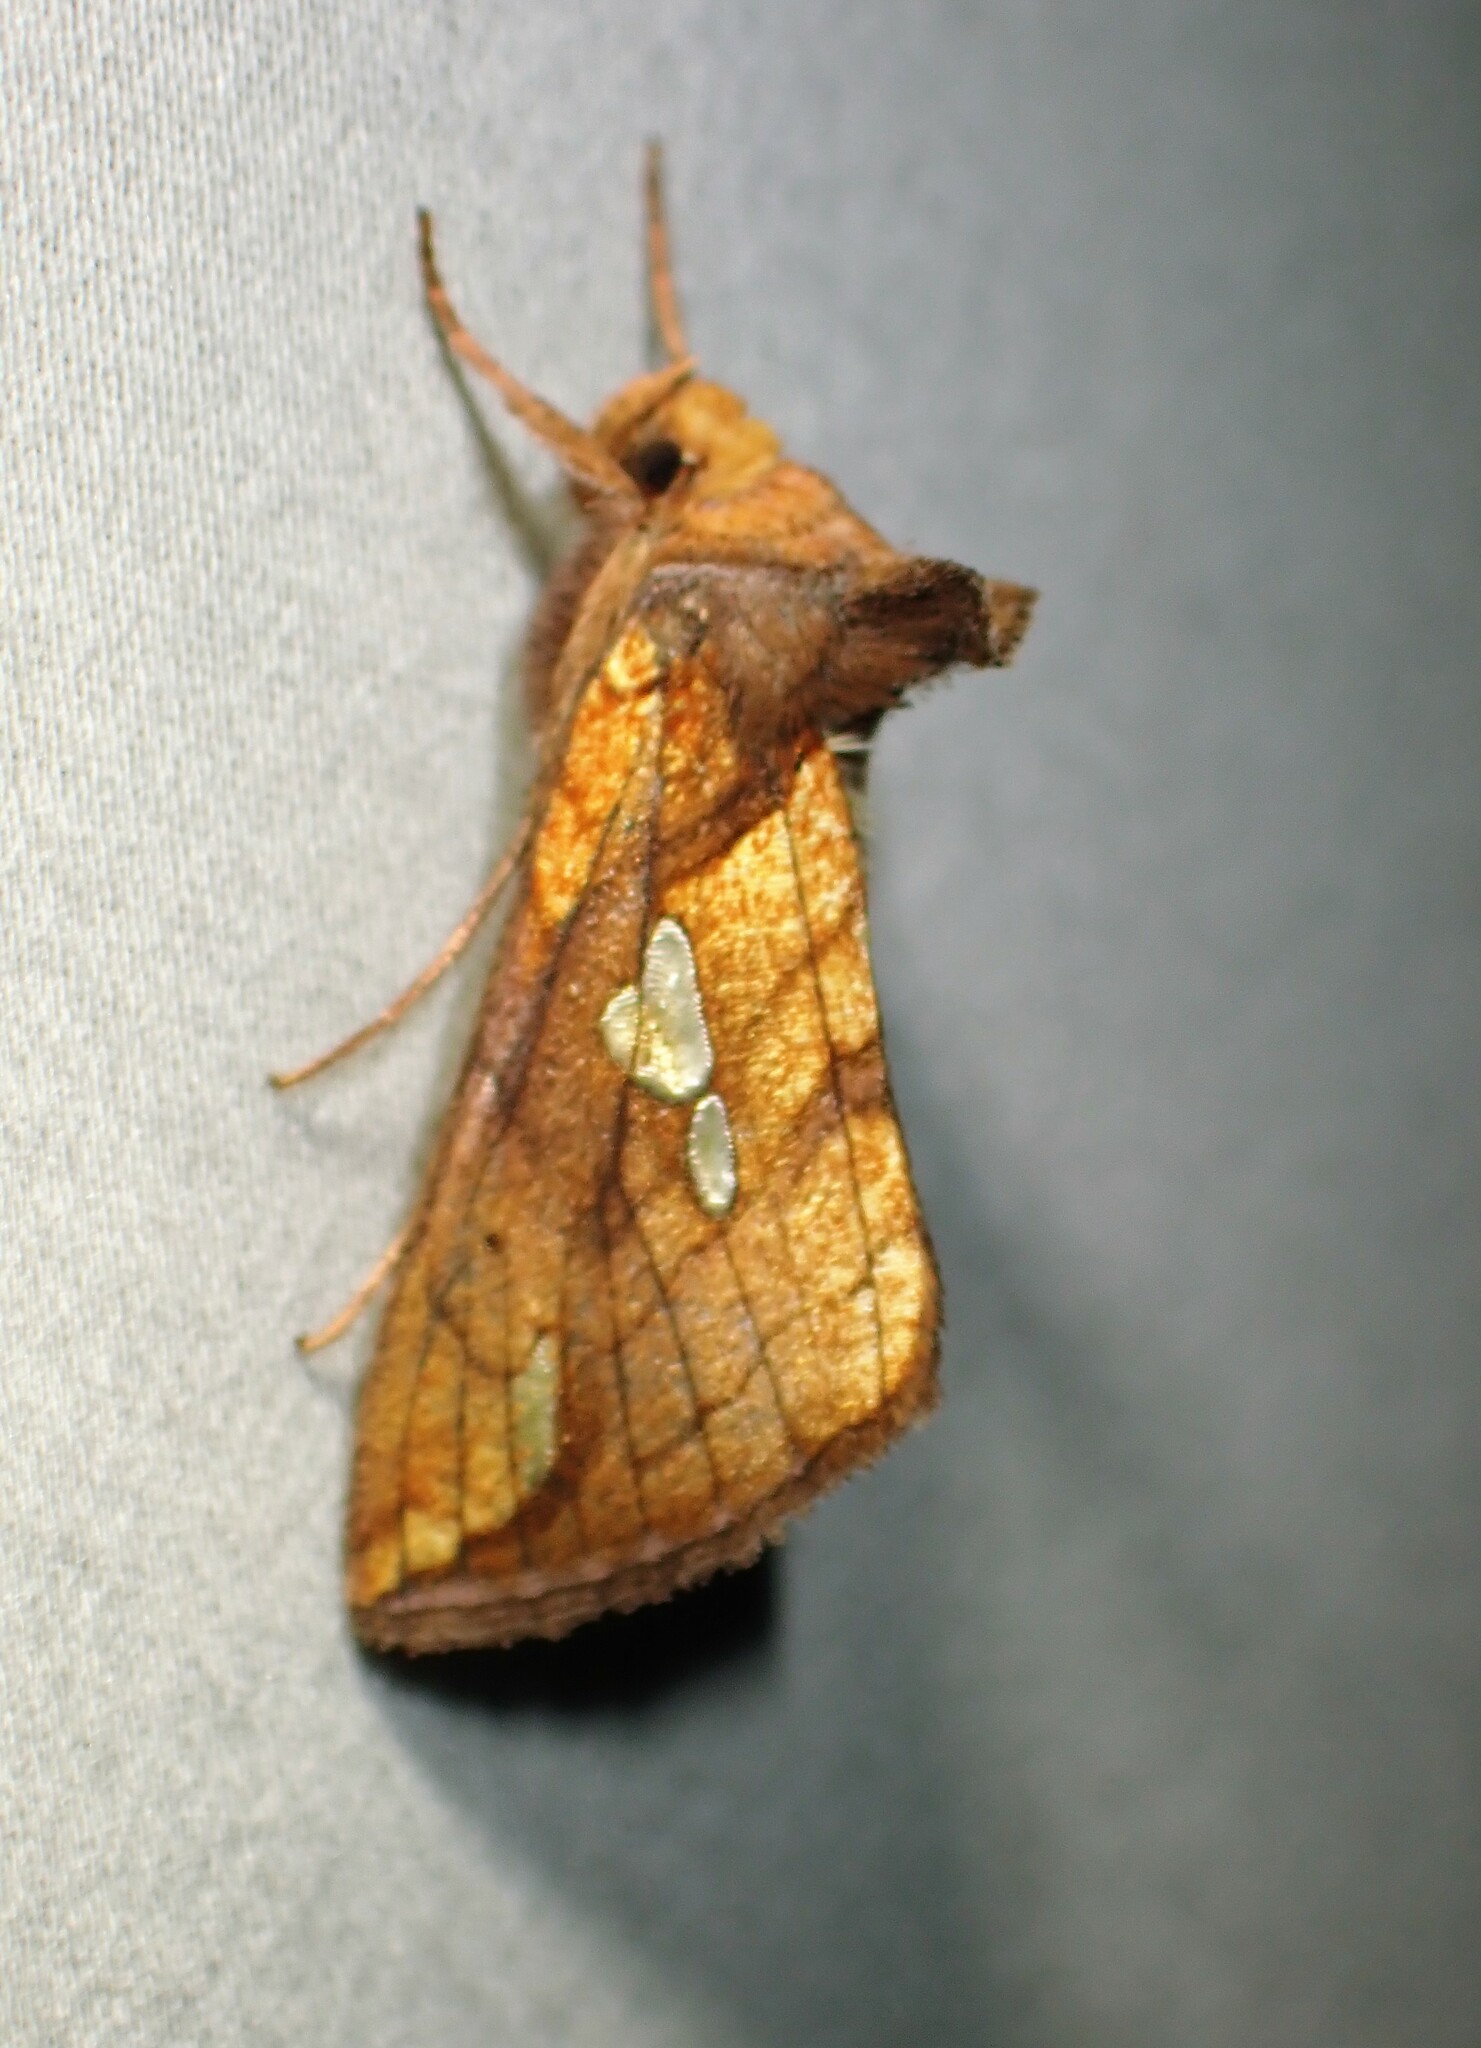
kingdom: Animalia
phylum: Arthropoda
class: Insecta
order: Lepidoptera
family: Noctuidae
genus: Plusia
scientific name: Plusia putnami
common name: Lempke's gold spot
